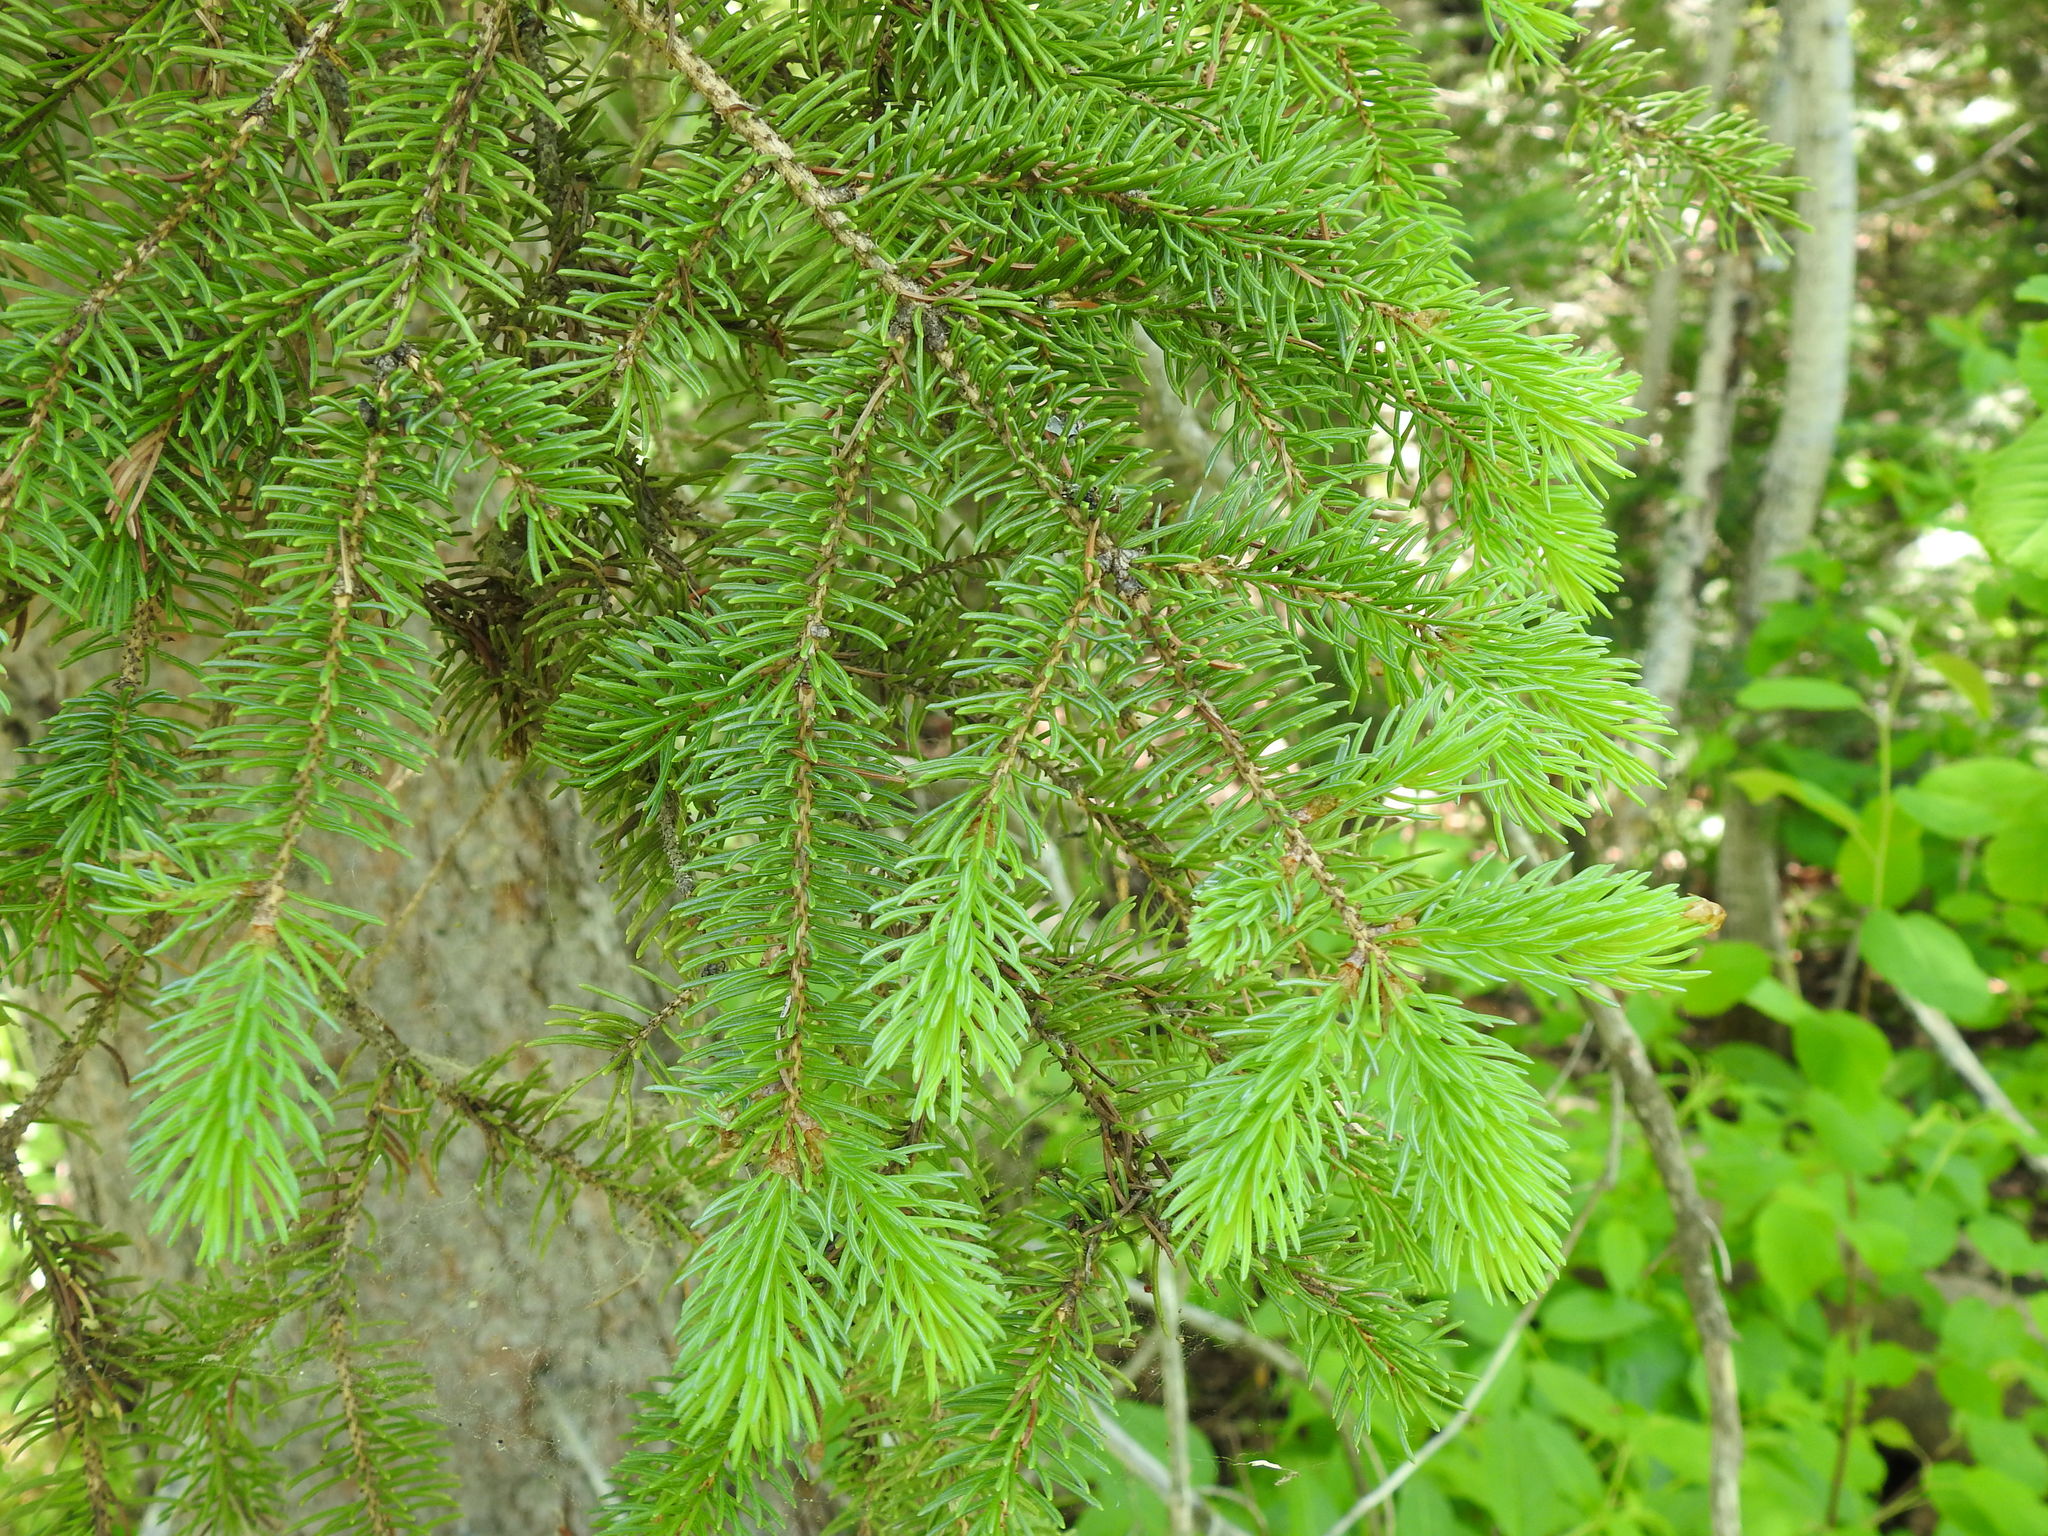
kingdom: Plantae
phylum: Tracheophyta
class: Pinopsida
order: Pinales
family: Pinaceae
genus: Picea
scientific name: Picea glauca
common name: White spruce
